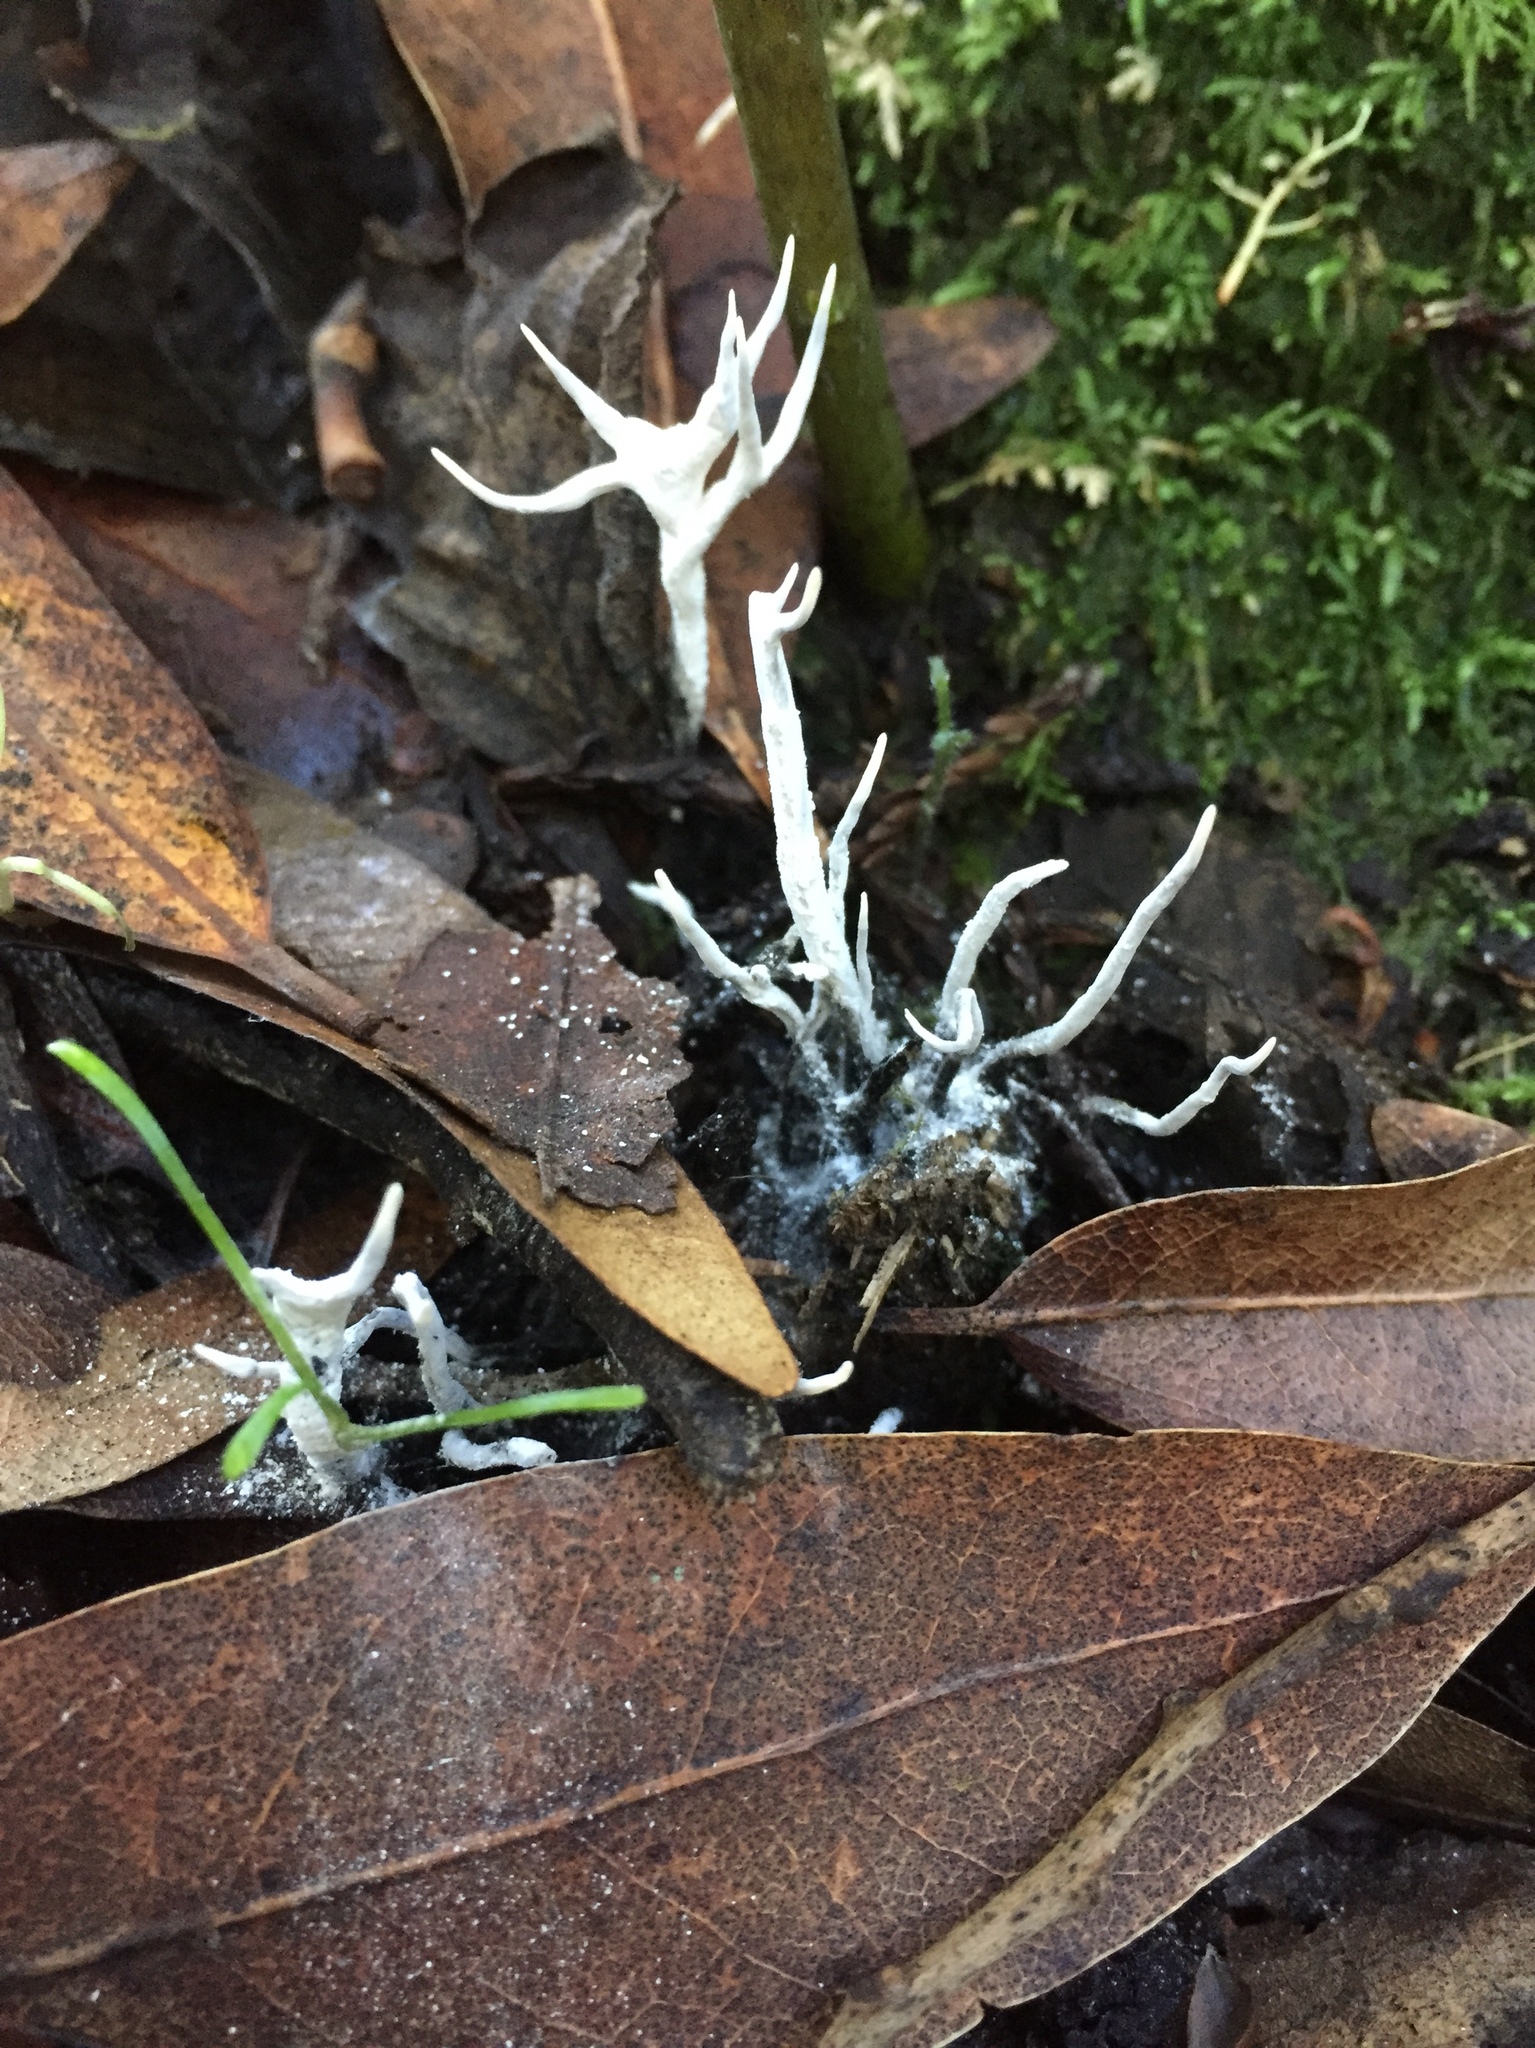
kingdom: Fungi
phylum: Ascomycota
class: Sordariomycetes
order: Xylariales
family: Xylariaceae
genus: Xylaria
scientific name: Xylaria hypoxylon
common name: Candle-snuff fungus
